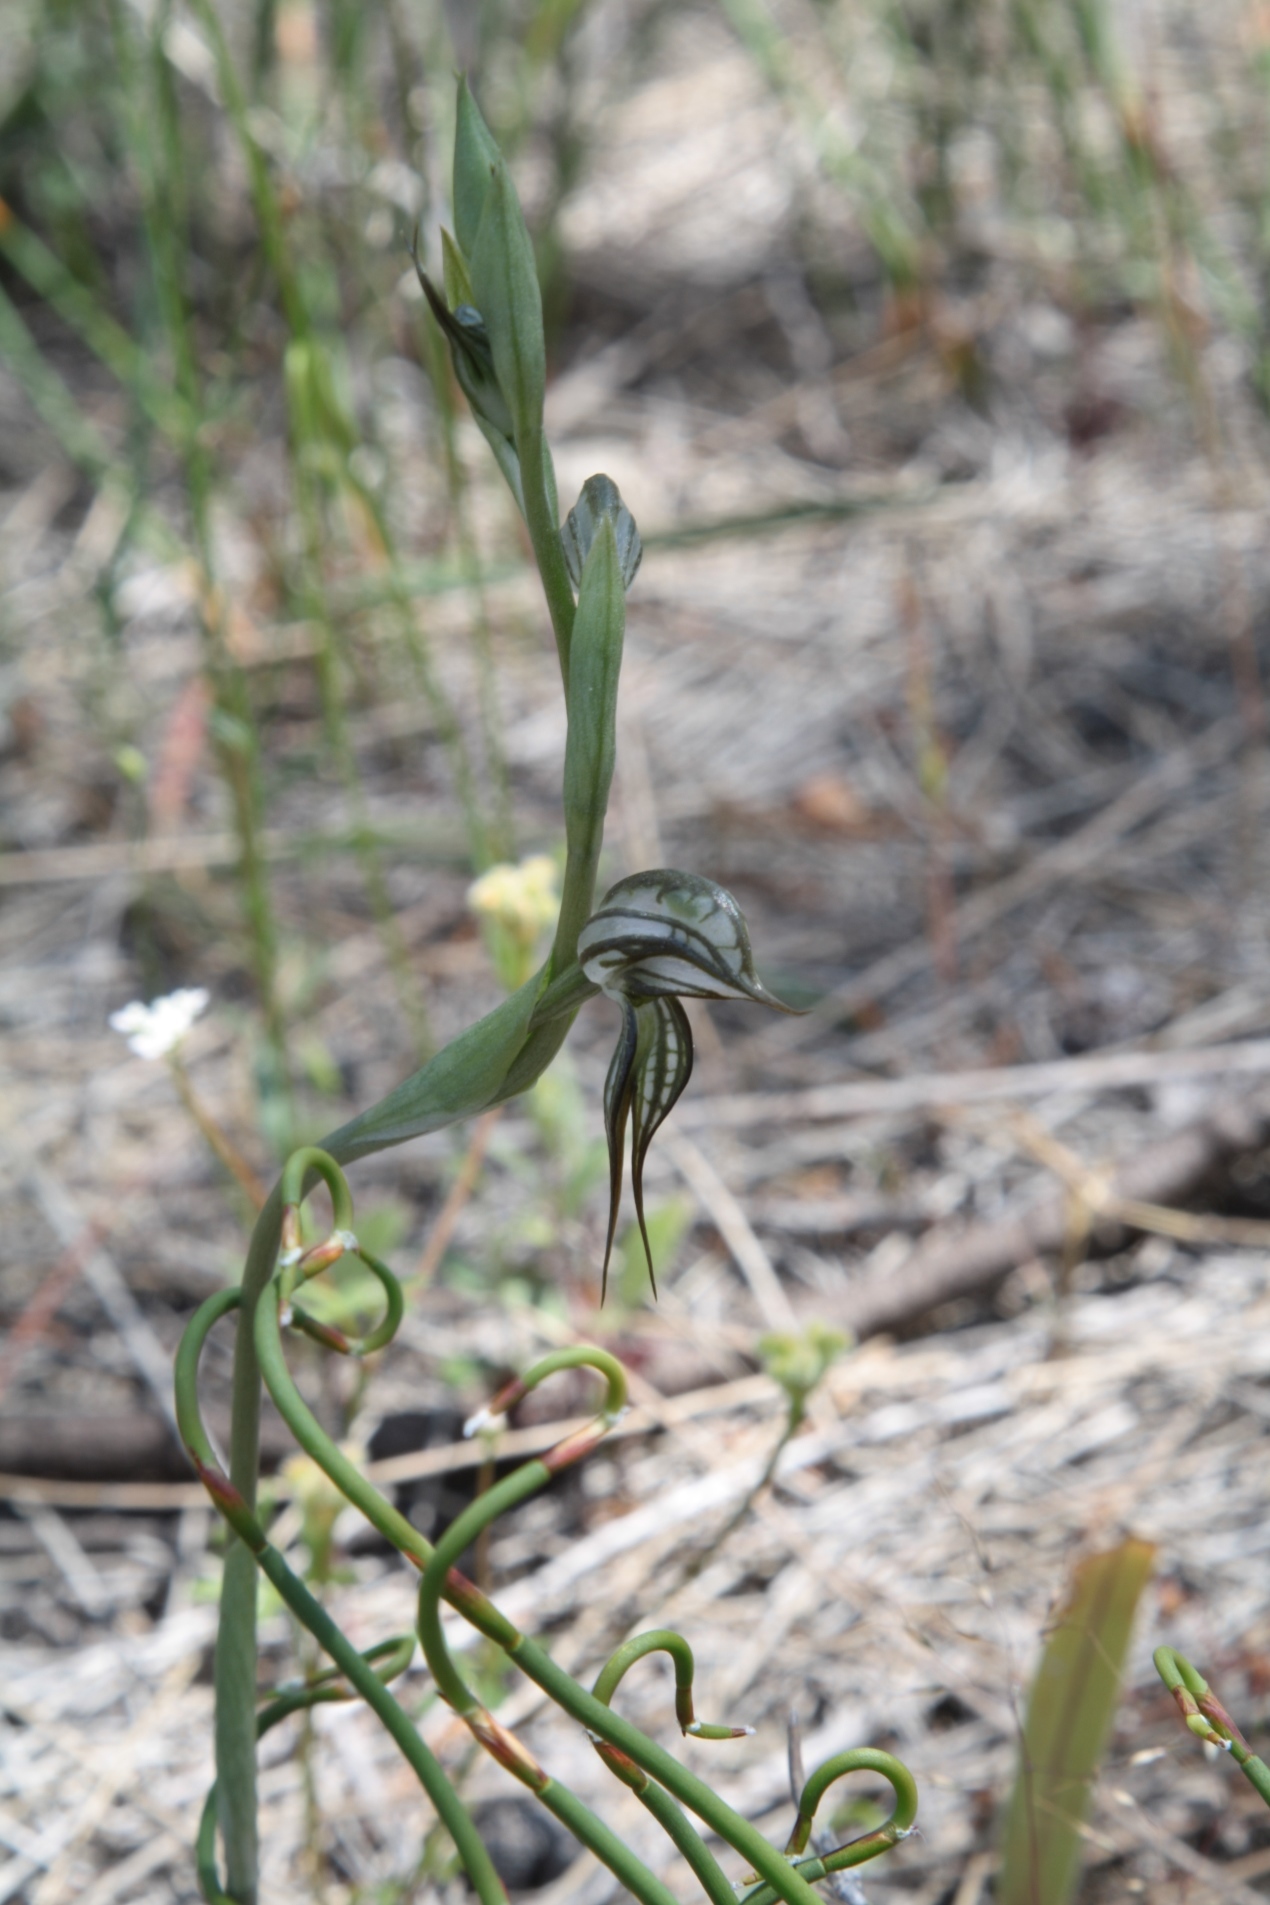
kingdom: Plantae
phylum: Tracheophyta
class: Liliopsida
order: Asparagales
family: Orchidaceae
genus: Pterostylis
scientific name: Pterostylis picta
